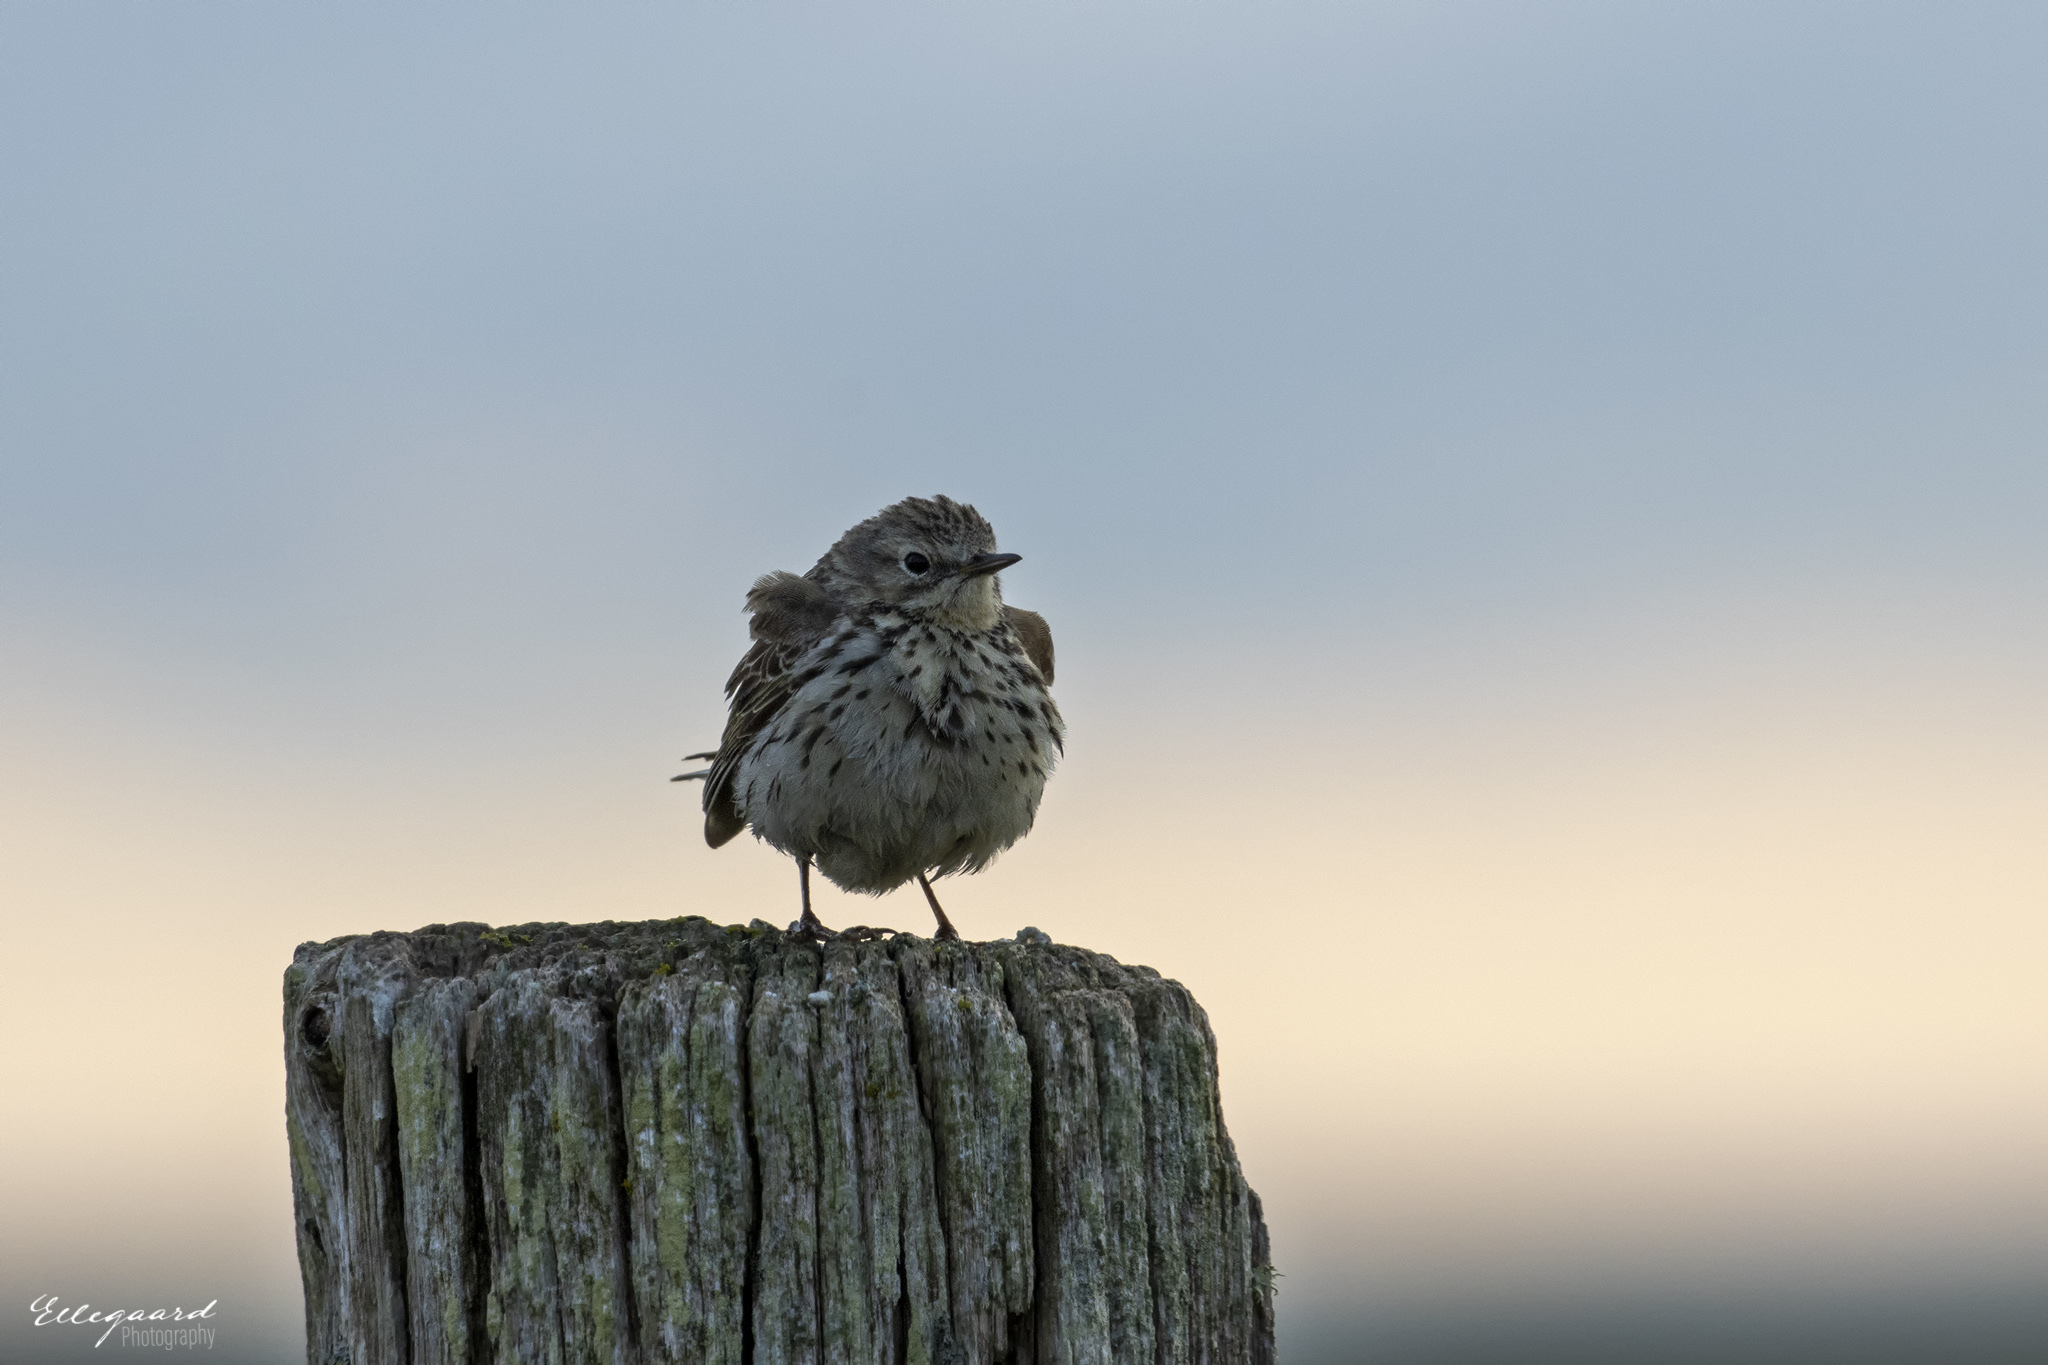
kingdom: Animalia
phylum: Chordata
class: Aves
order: Passeriformes
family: Motacillidae
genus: Anthus
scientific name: Anthus pratensis
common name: Meadow pipit
